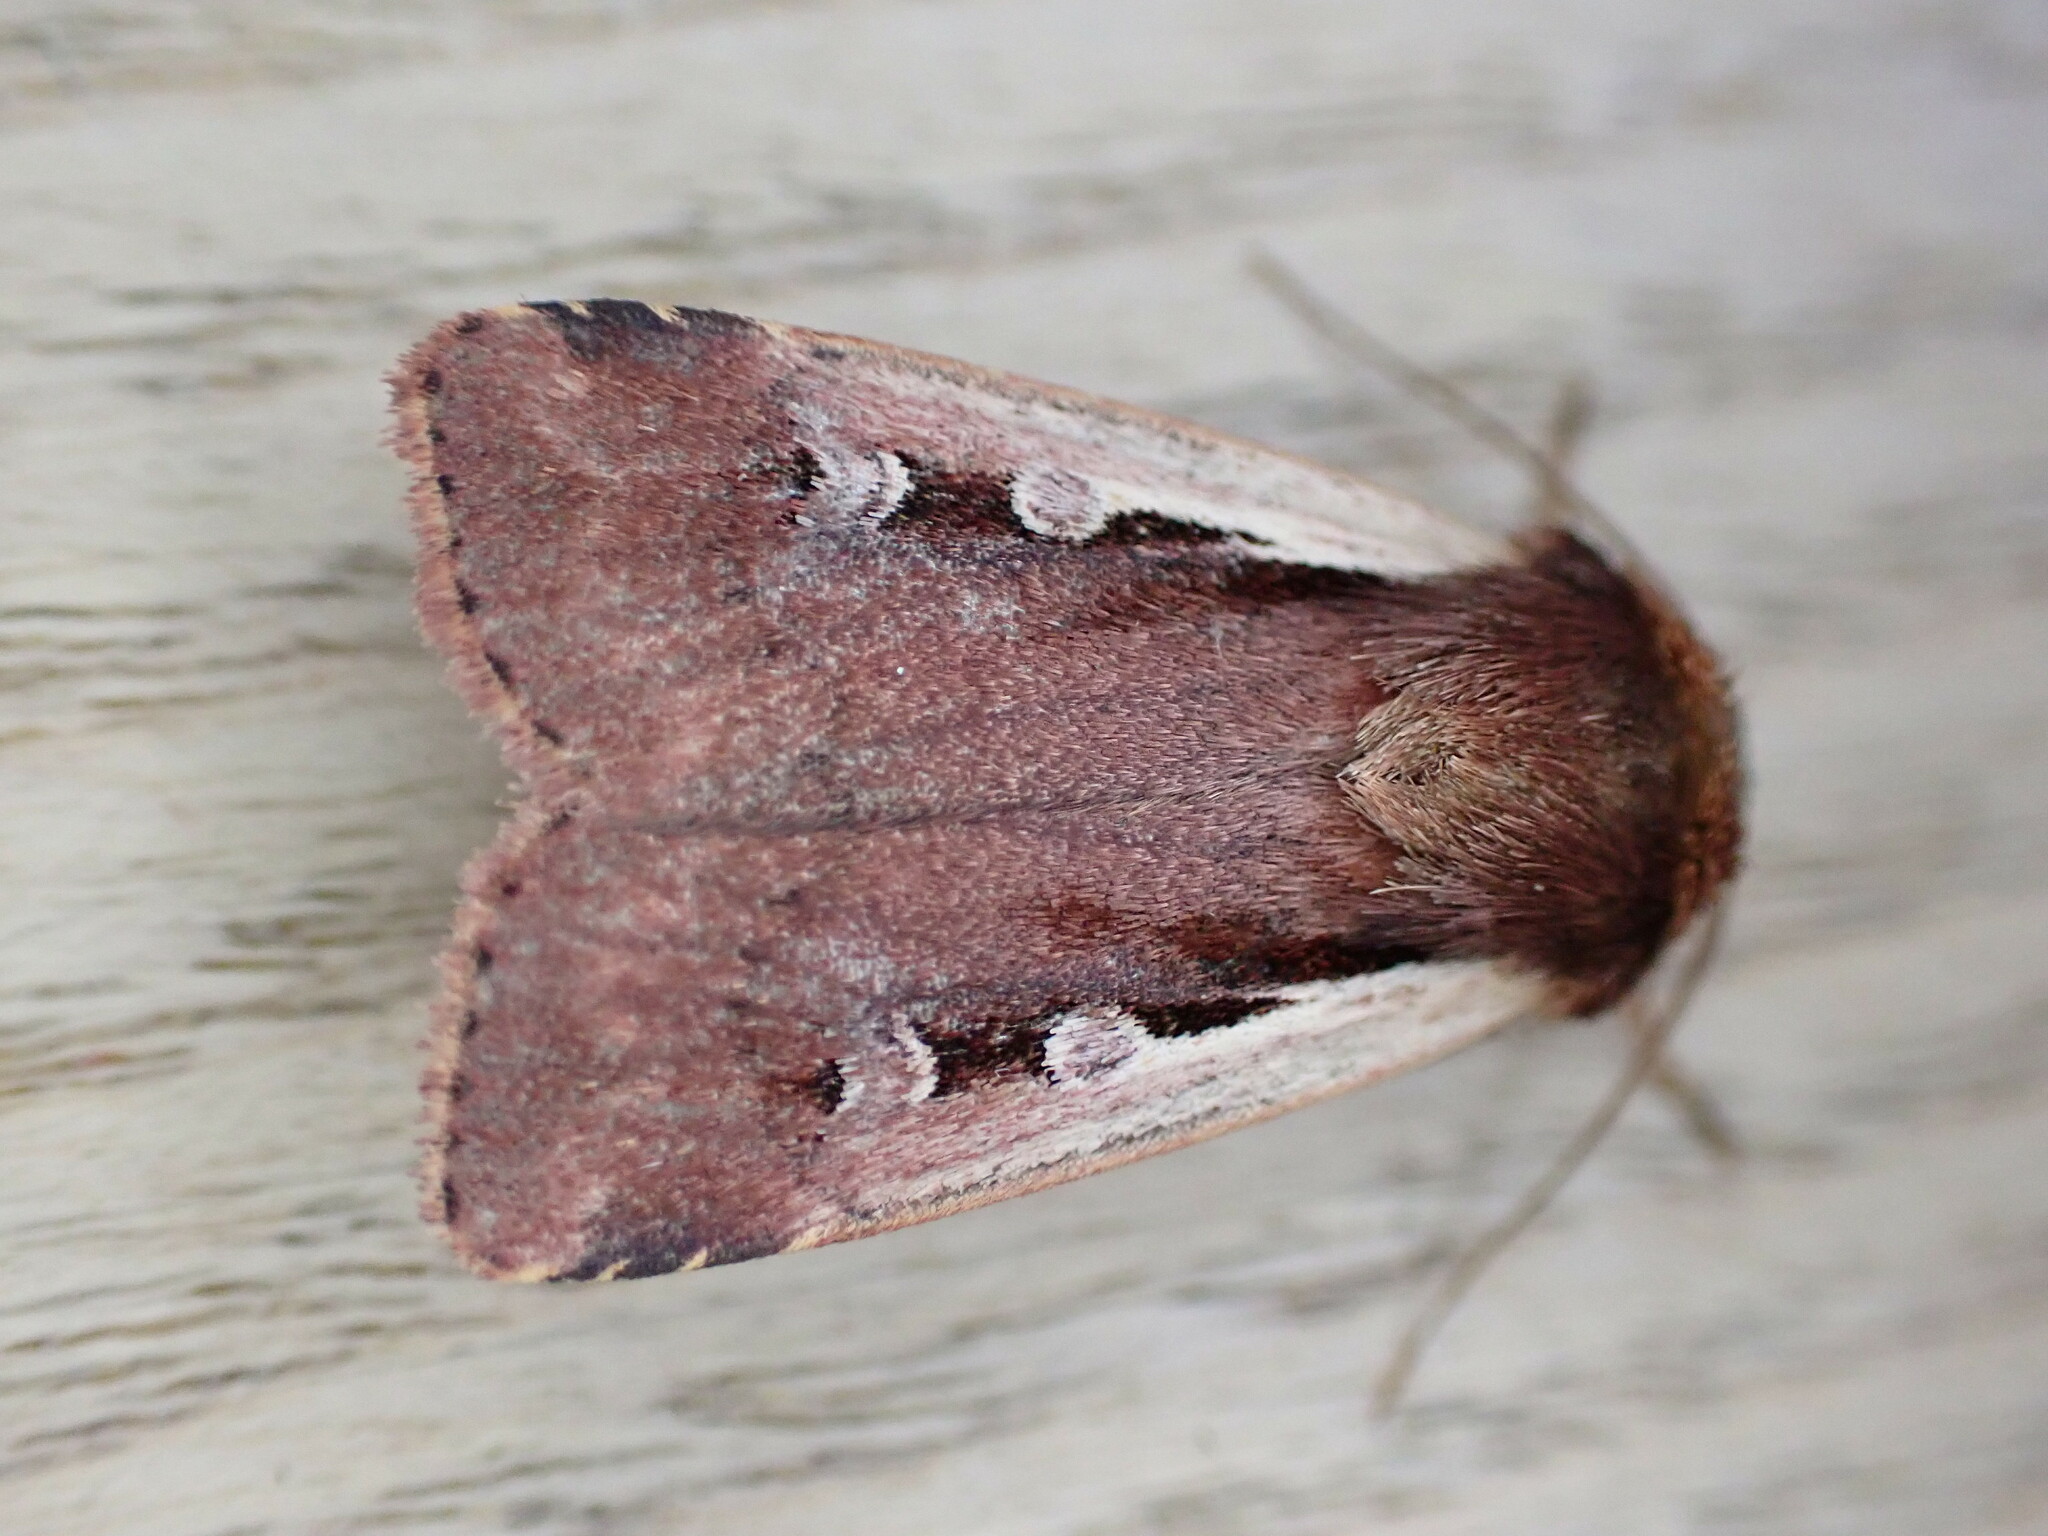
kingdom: Animalia
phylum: Arthropoda
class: Insecta
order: Lepidoptera
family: Noctuidae
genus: Ochropleura
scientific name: Ochropleura plecta
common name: Flame shoulder
